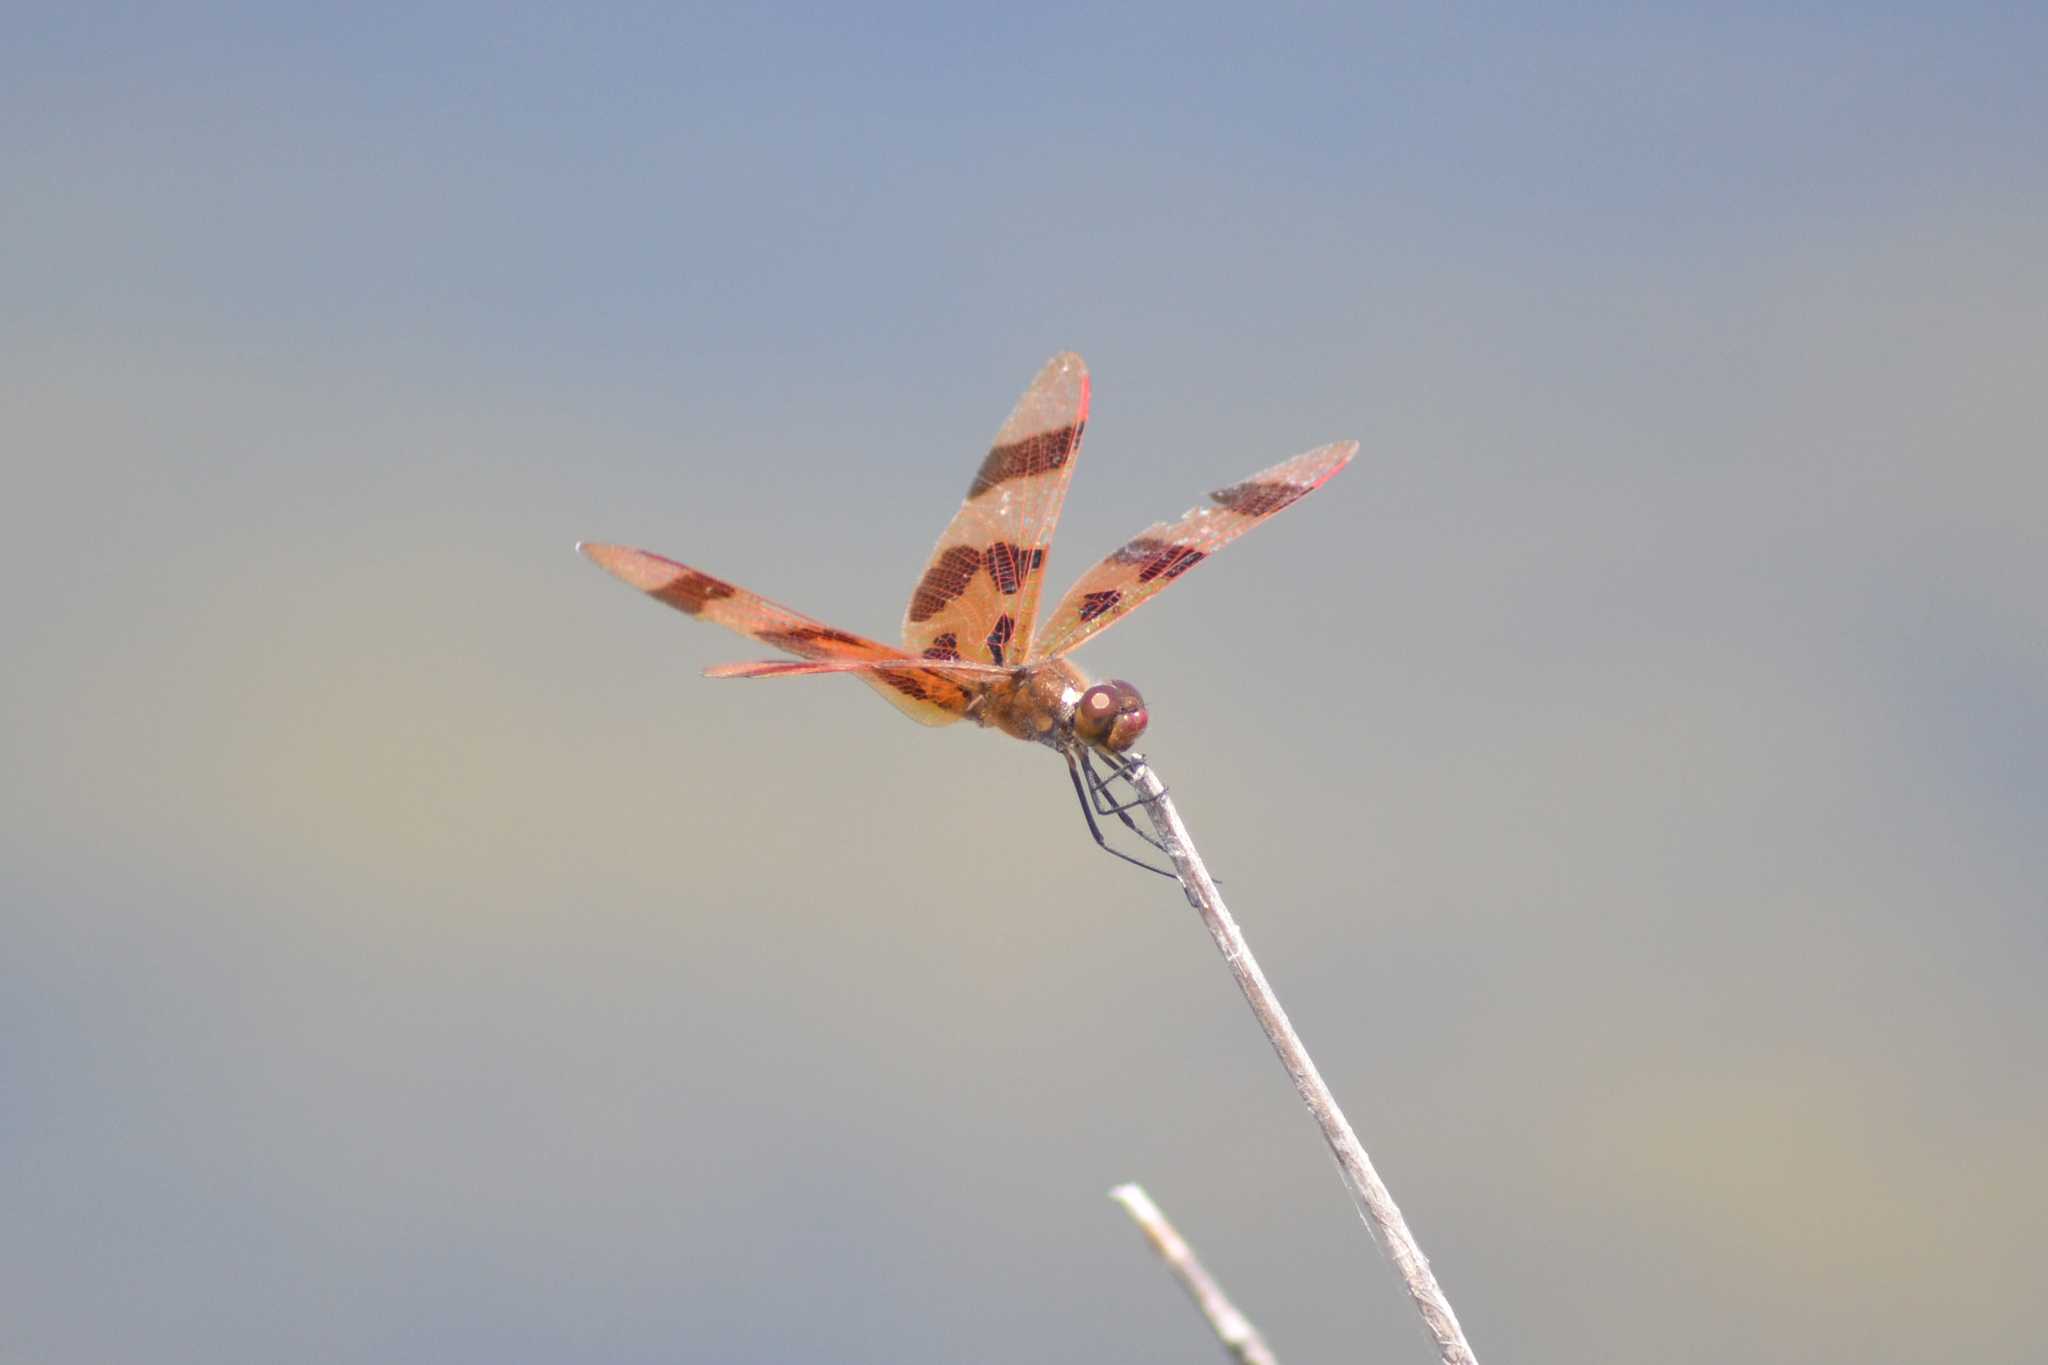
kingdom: Animalia
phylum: Arthropoda
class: Insecta
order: Odonata
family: Libellulidae
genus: Celithemis
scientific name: Celithemis eponina
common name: Halloween pennant
